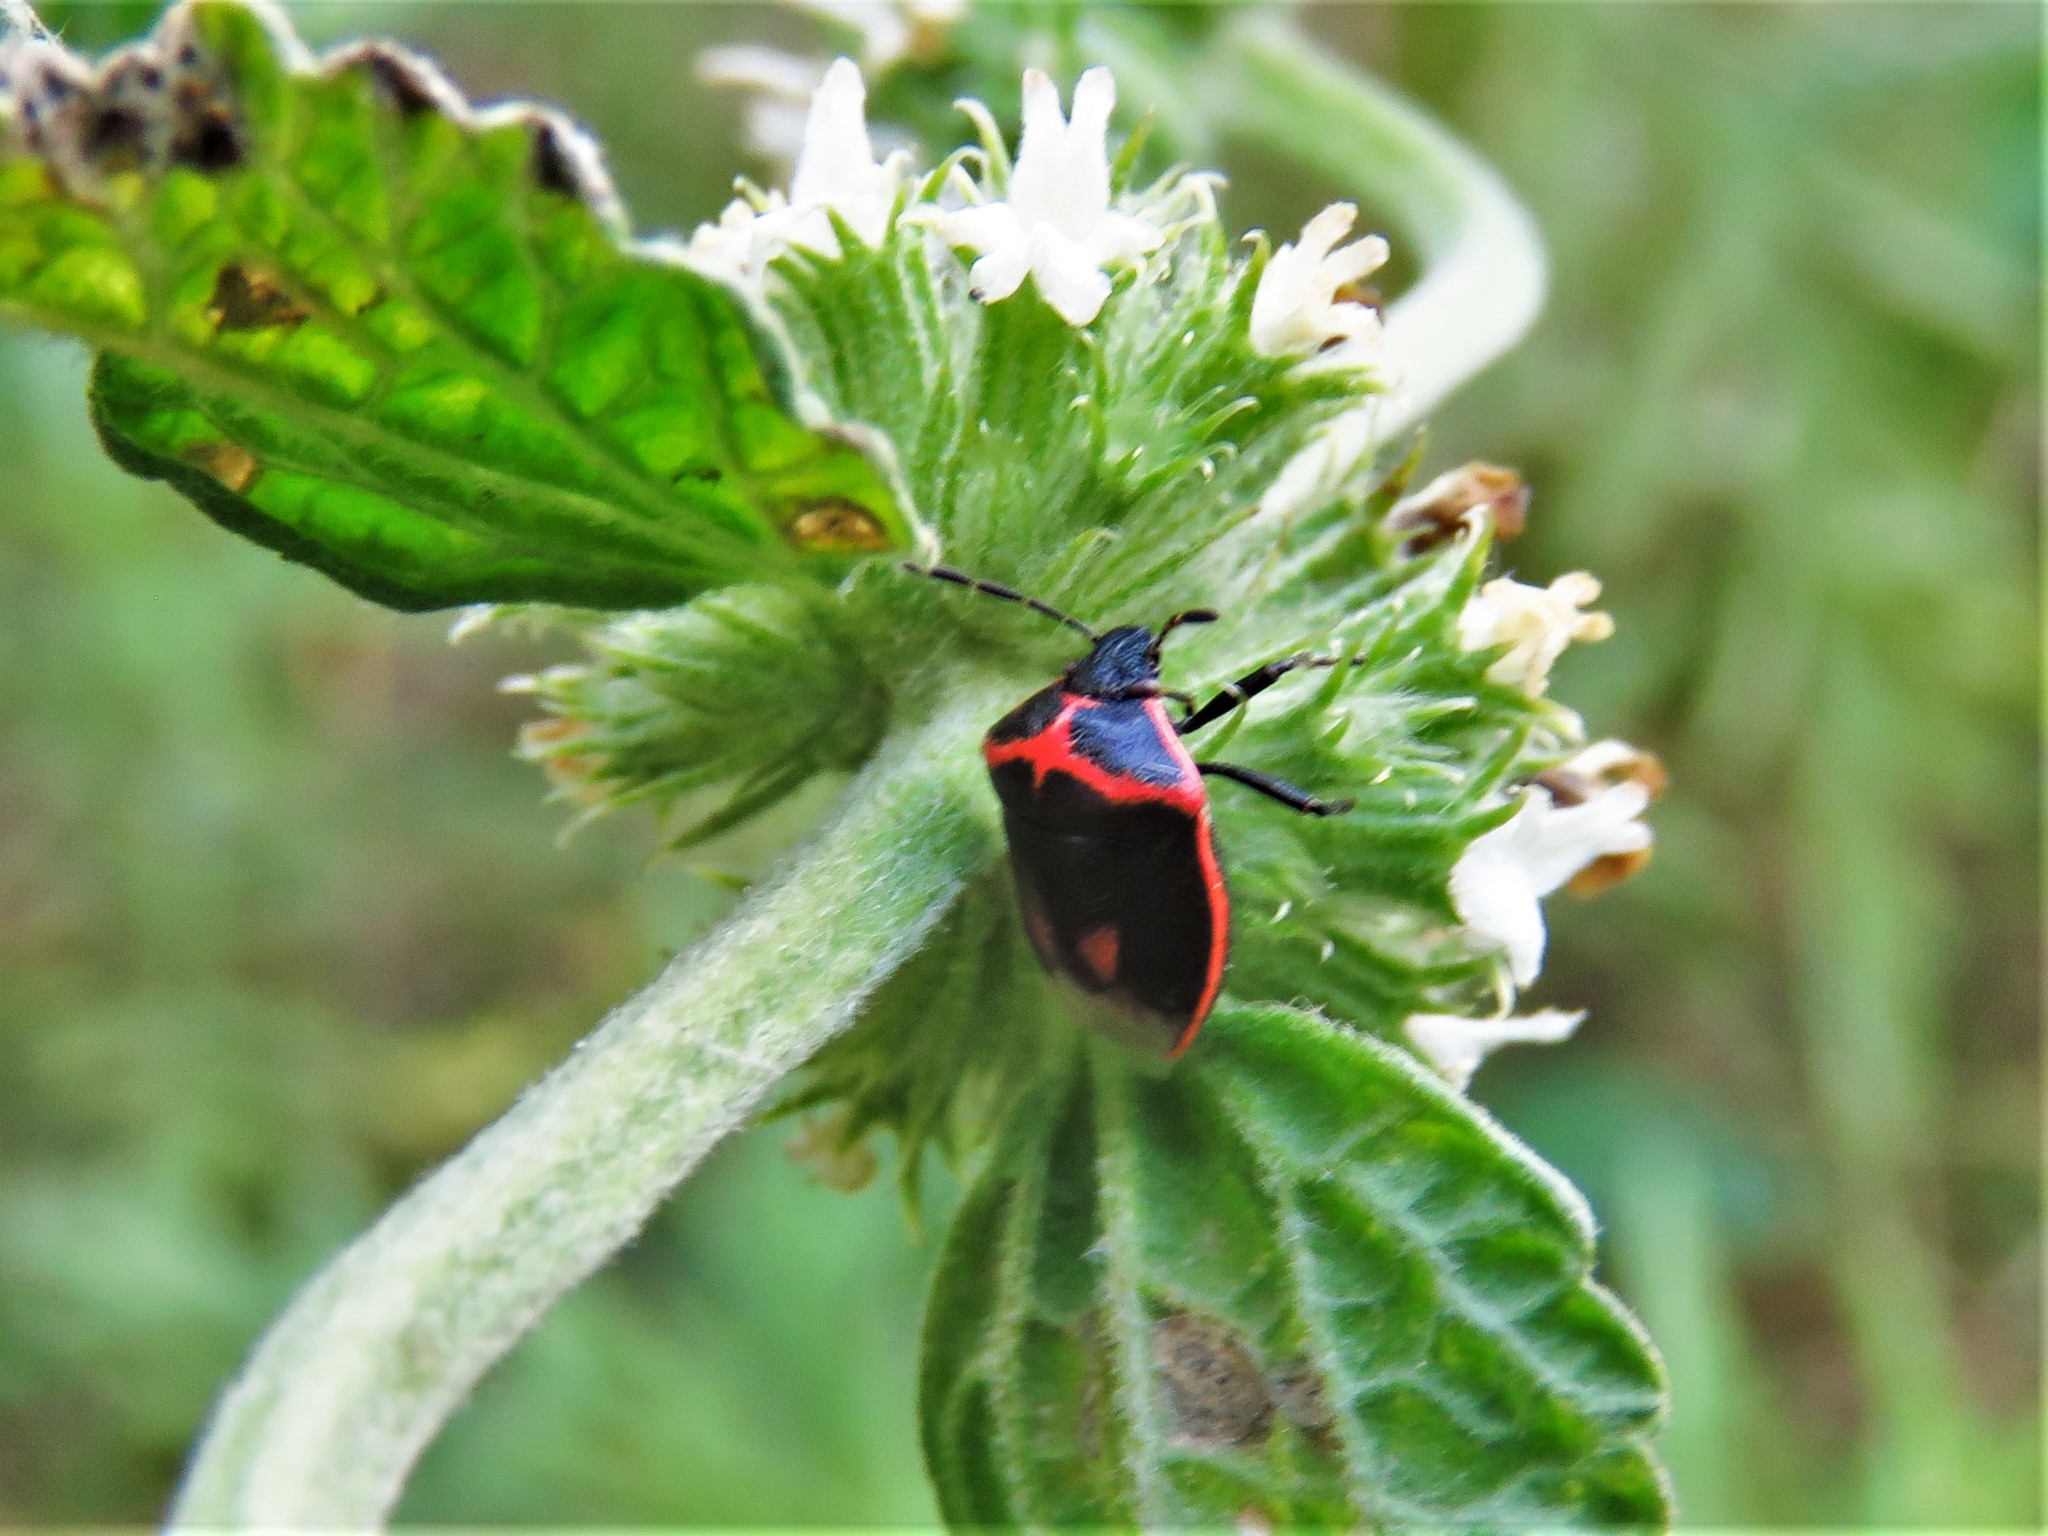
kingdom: Animalia
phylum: Arthropoda
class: Insecta
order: Hemiptera
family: Pentatomidae
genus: Cosmopepla
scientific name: Cosmopepla lintneriana
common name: Twice-stabbed stink bug
